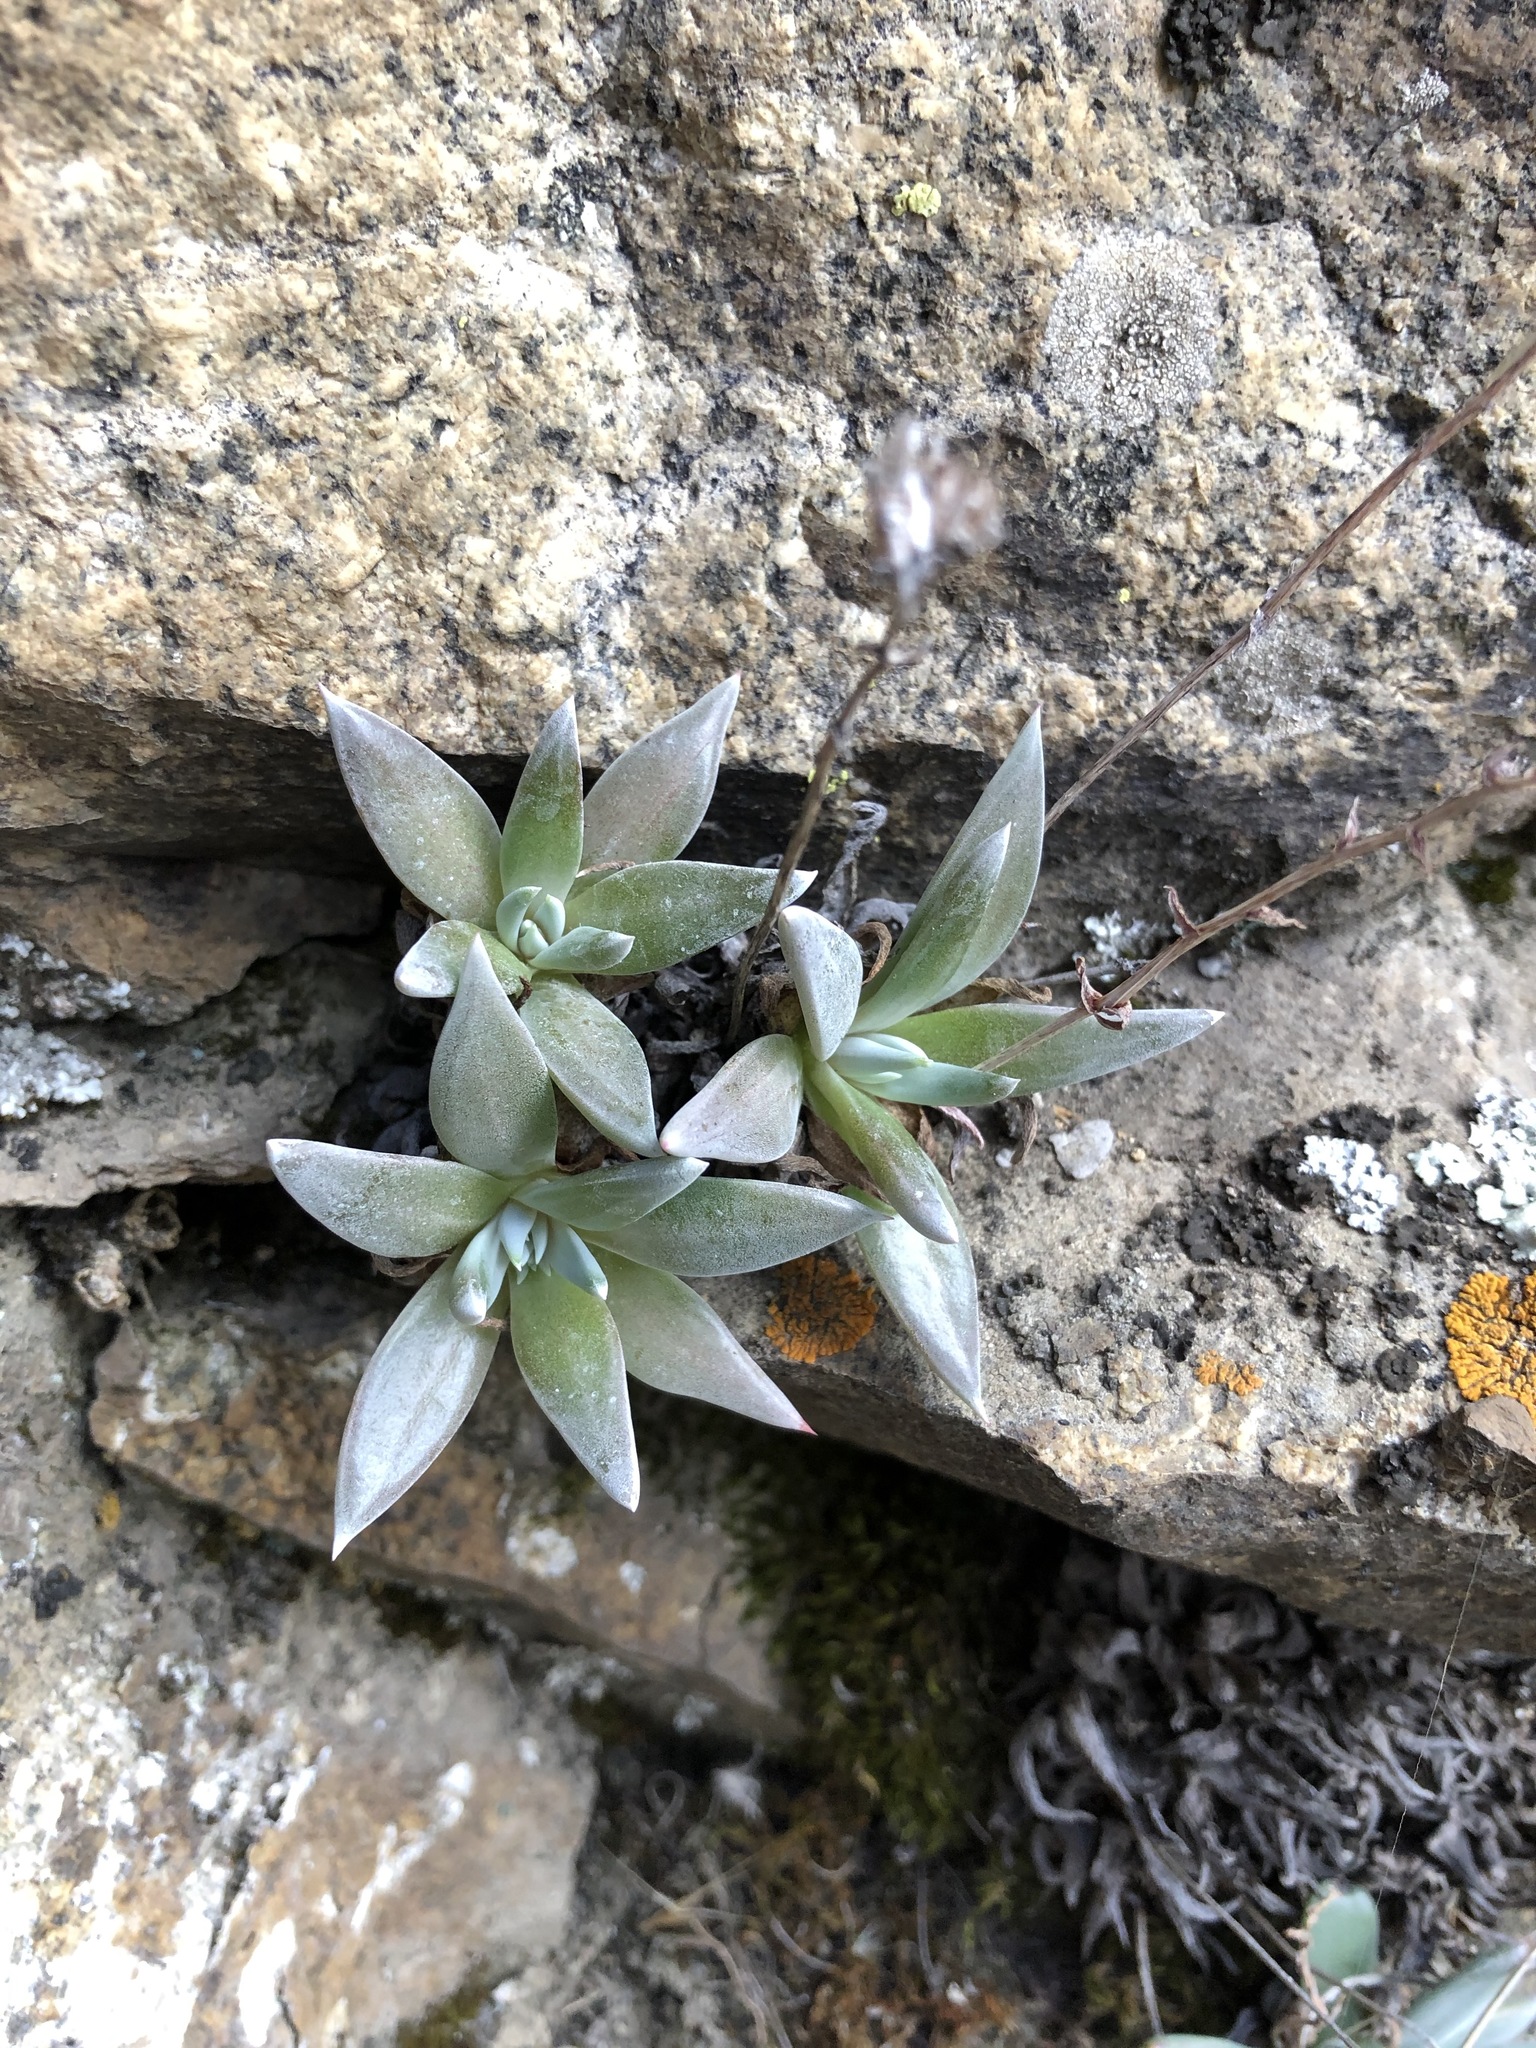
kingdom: Plantae
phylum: Tracheophyta
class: Magnoliopsida
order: Saxifragales
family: Crassulaceae
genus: Dudleya
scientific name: Dudleya abramsii
